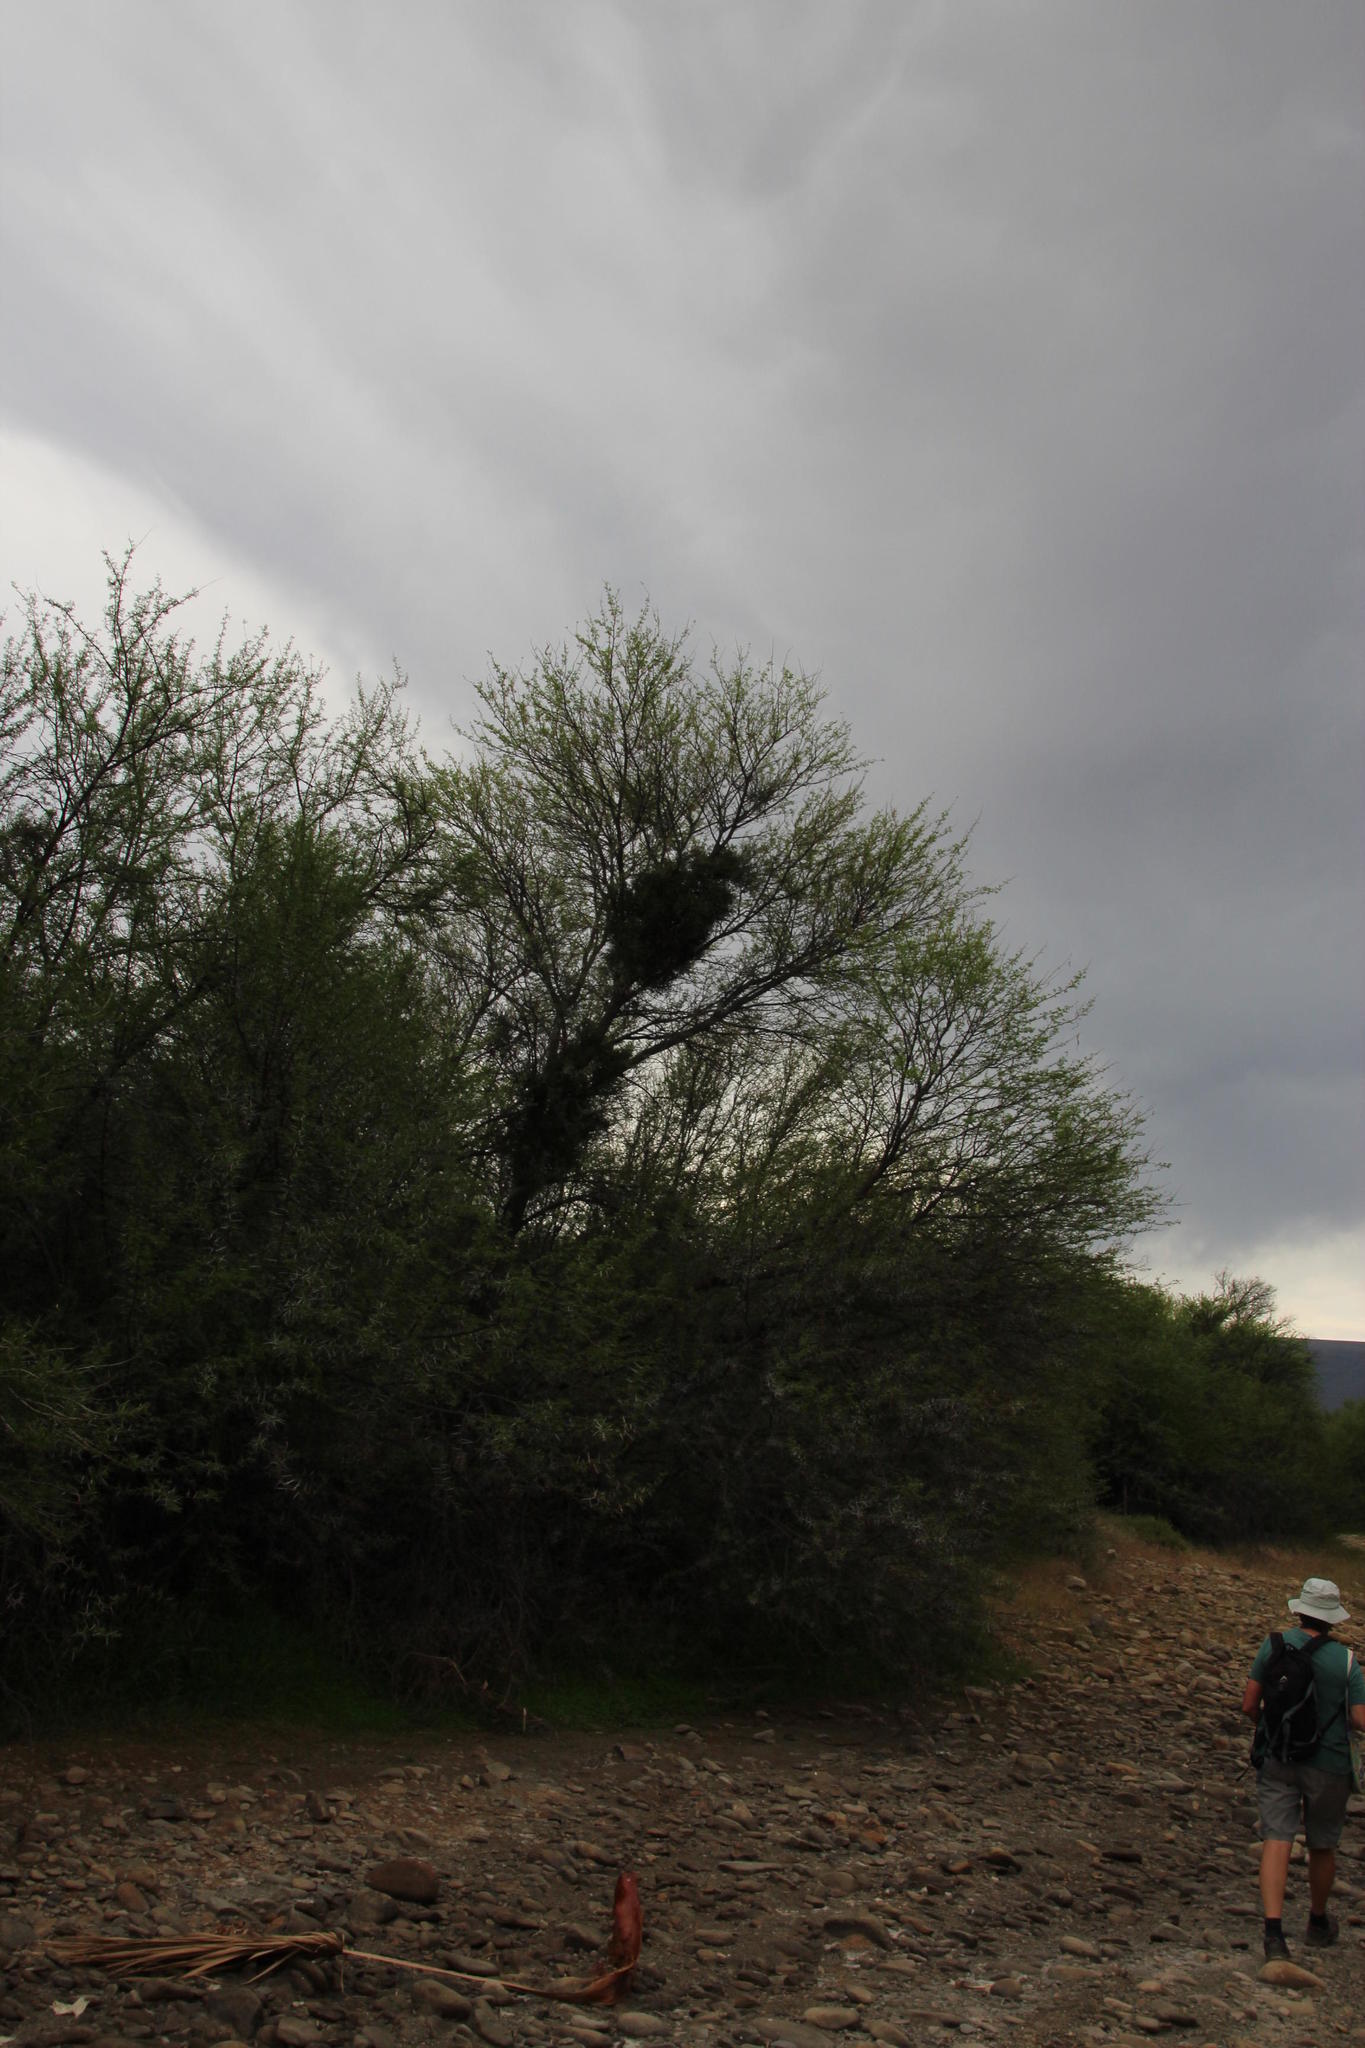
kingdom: Plantae
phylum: Tracheophyta
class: Magnoliopsida
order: Fabales
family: Fabaceae
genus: Vachellia
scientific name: Vachellia karroo
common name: Sweet thorn
